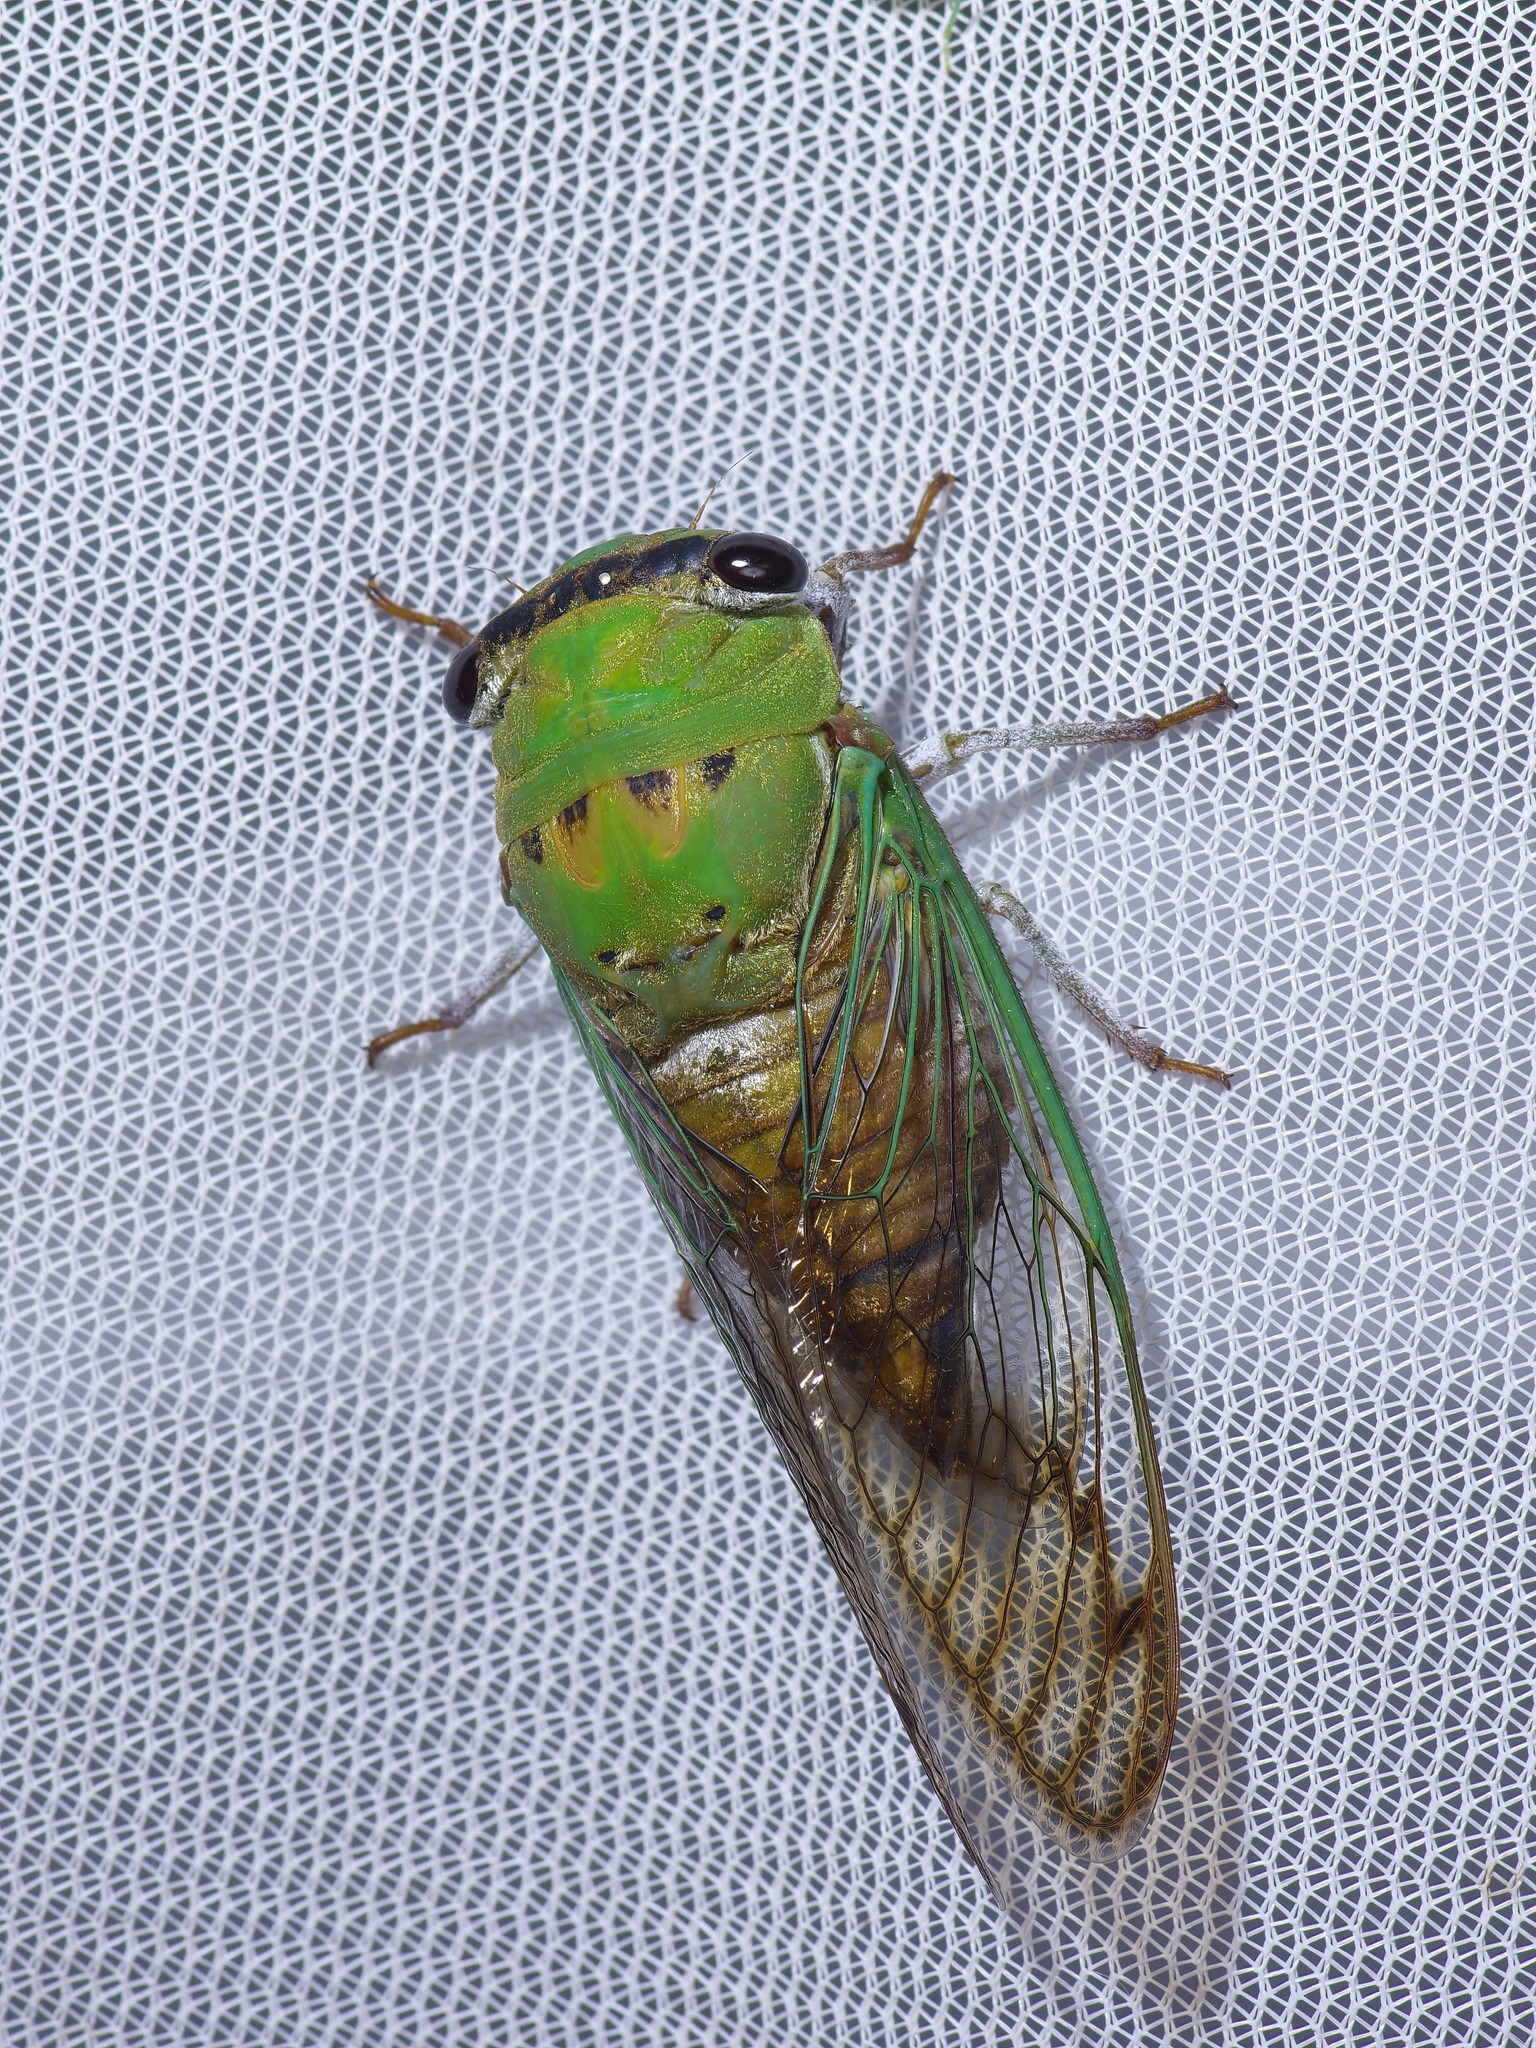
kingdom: Animalia
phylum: Arthropoda
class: Insecta
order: Hemiptera
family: Cicadidae
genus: Neotibicen
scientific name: Neotibicen superbus
